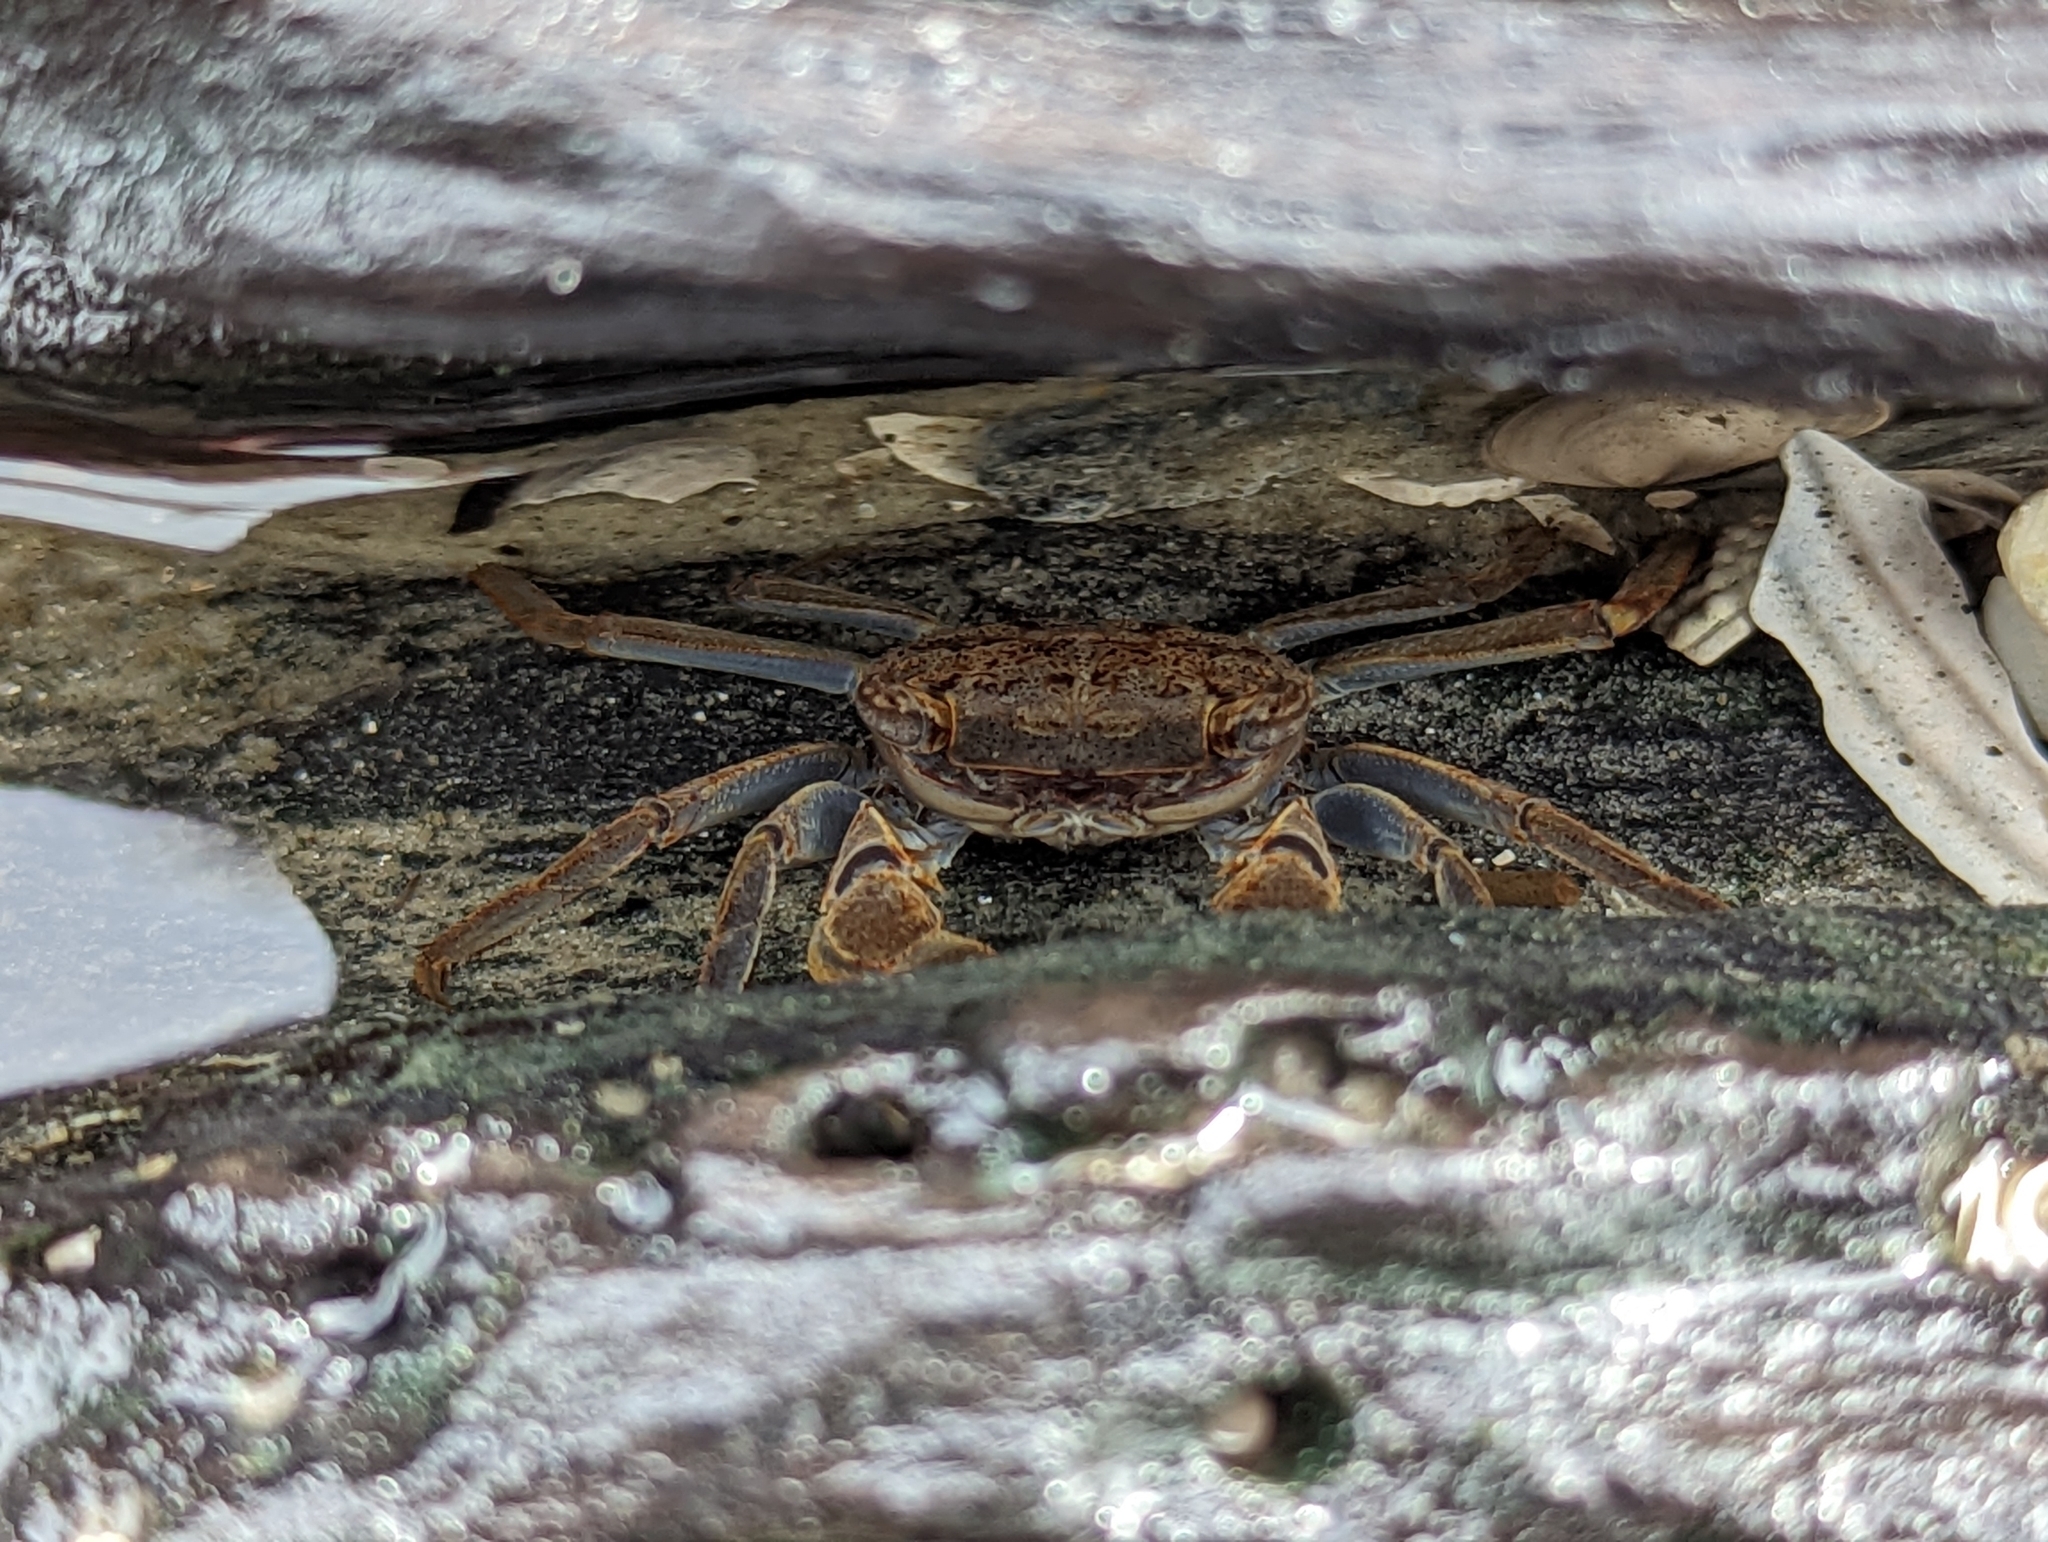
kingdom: Animalia
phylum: Arthropoda
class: Malacostraca
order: Decapoda
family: Sesarmidae
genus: Armases
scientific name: Armases cinereum
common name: Squareback marsh crab
